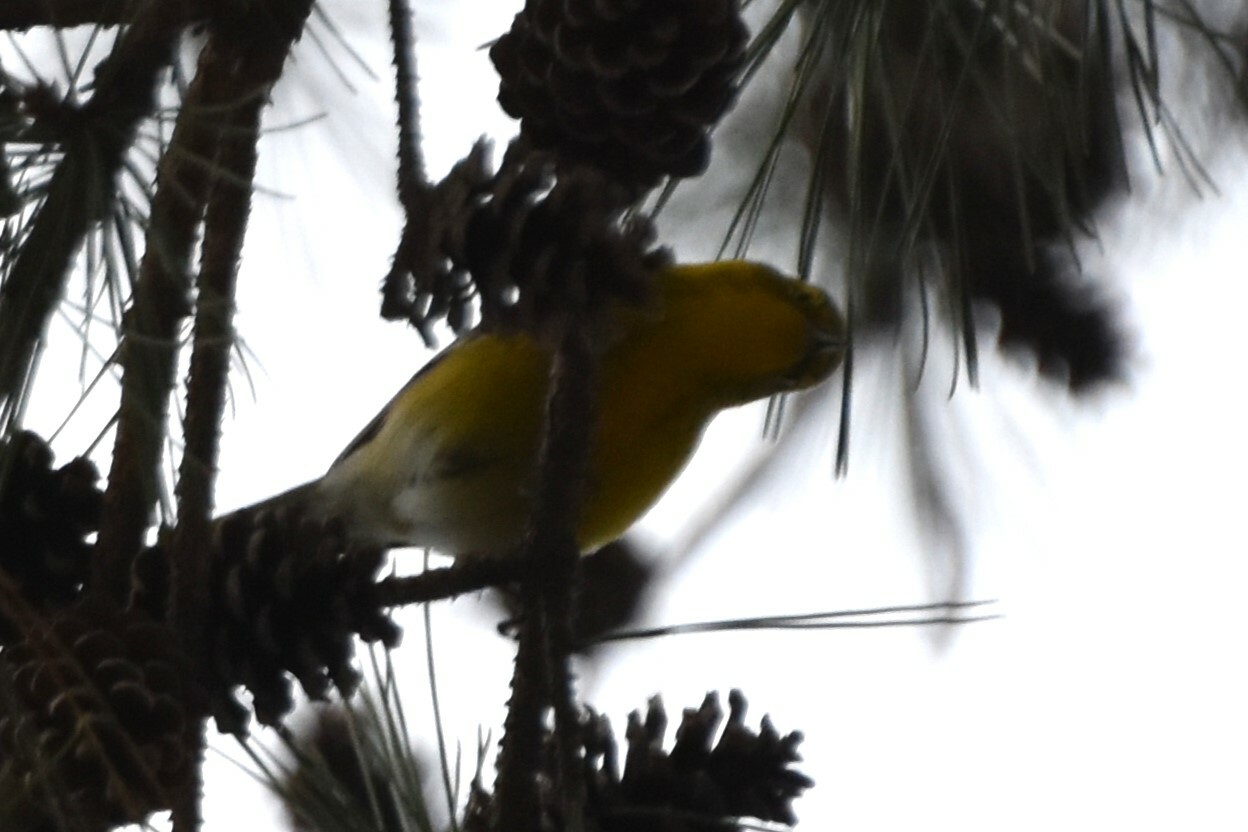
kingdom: Animalia
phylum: Chordata
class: Aves
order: Passeriformes
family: Parulidae
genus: Setophaga
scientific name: Setophaga pinus
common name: Pine warbler
